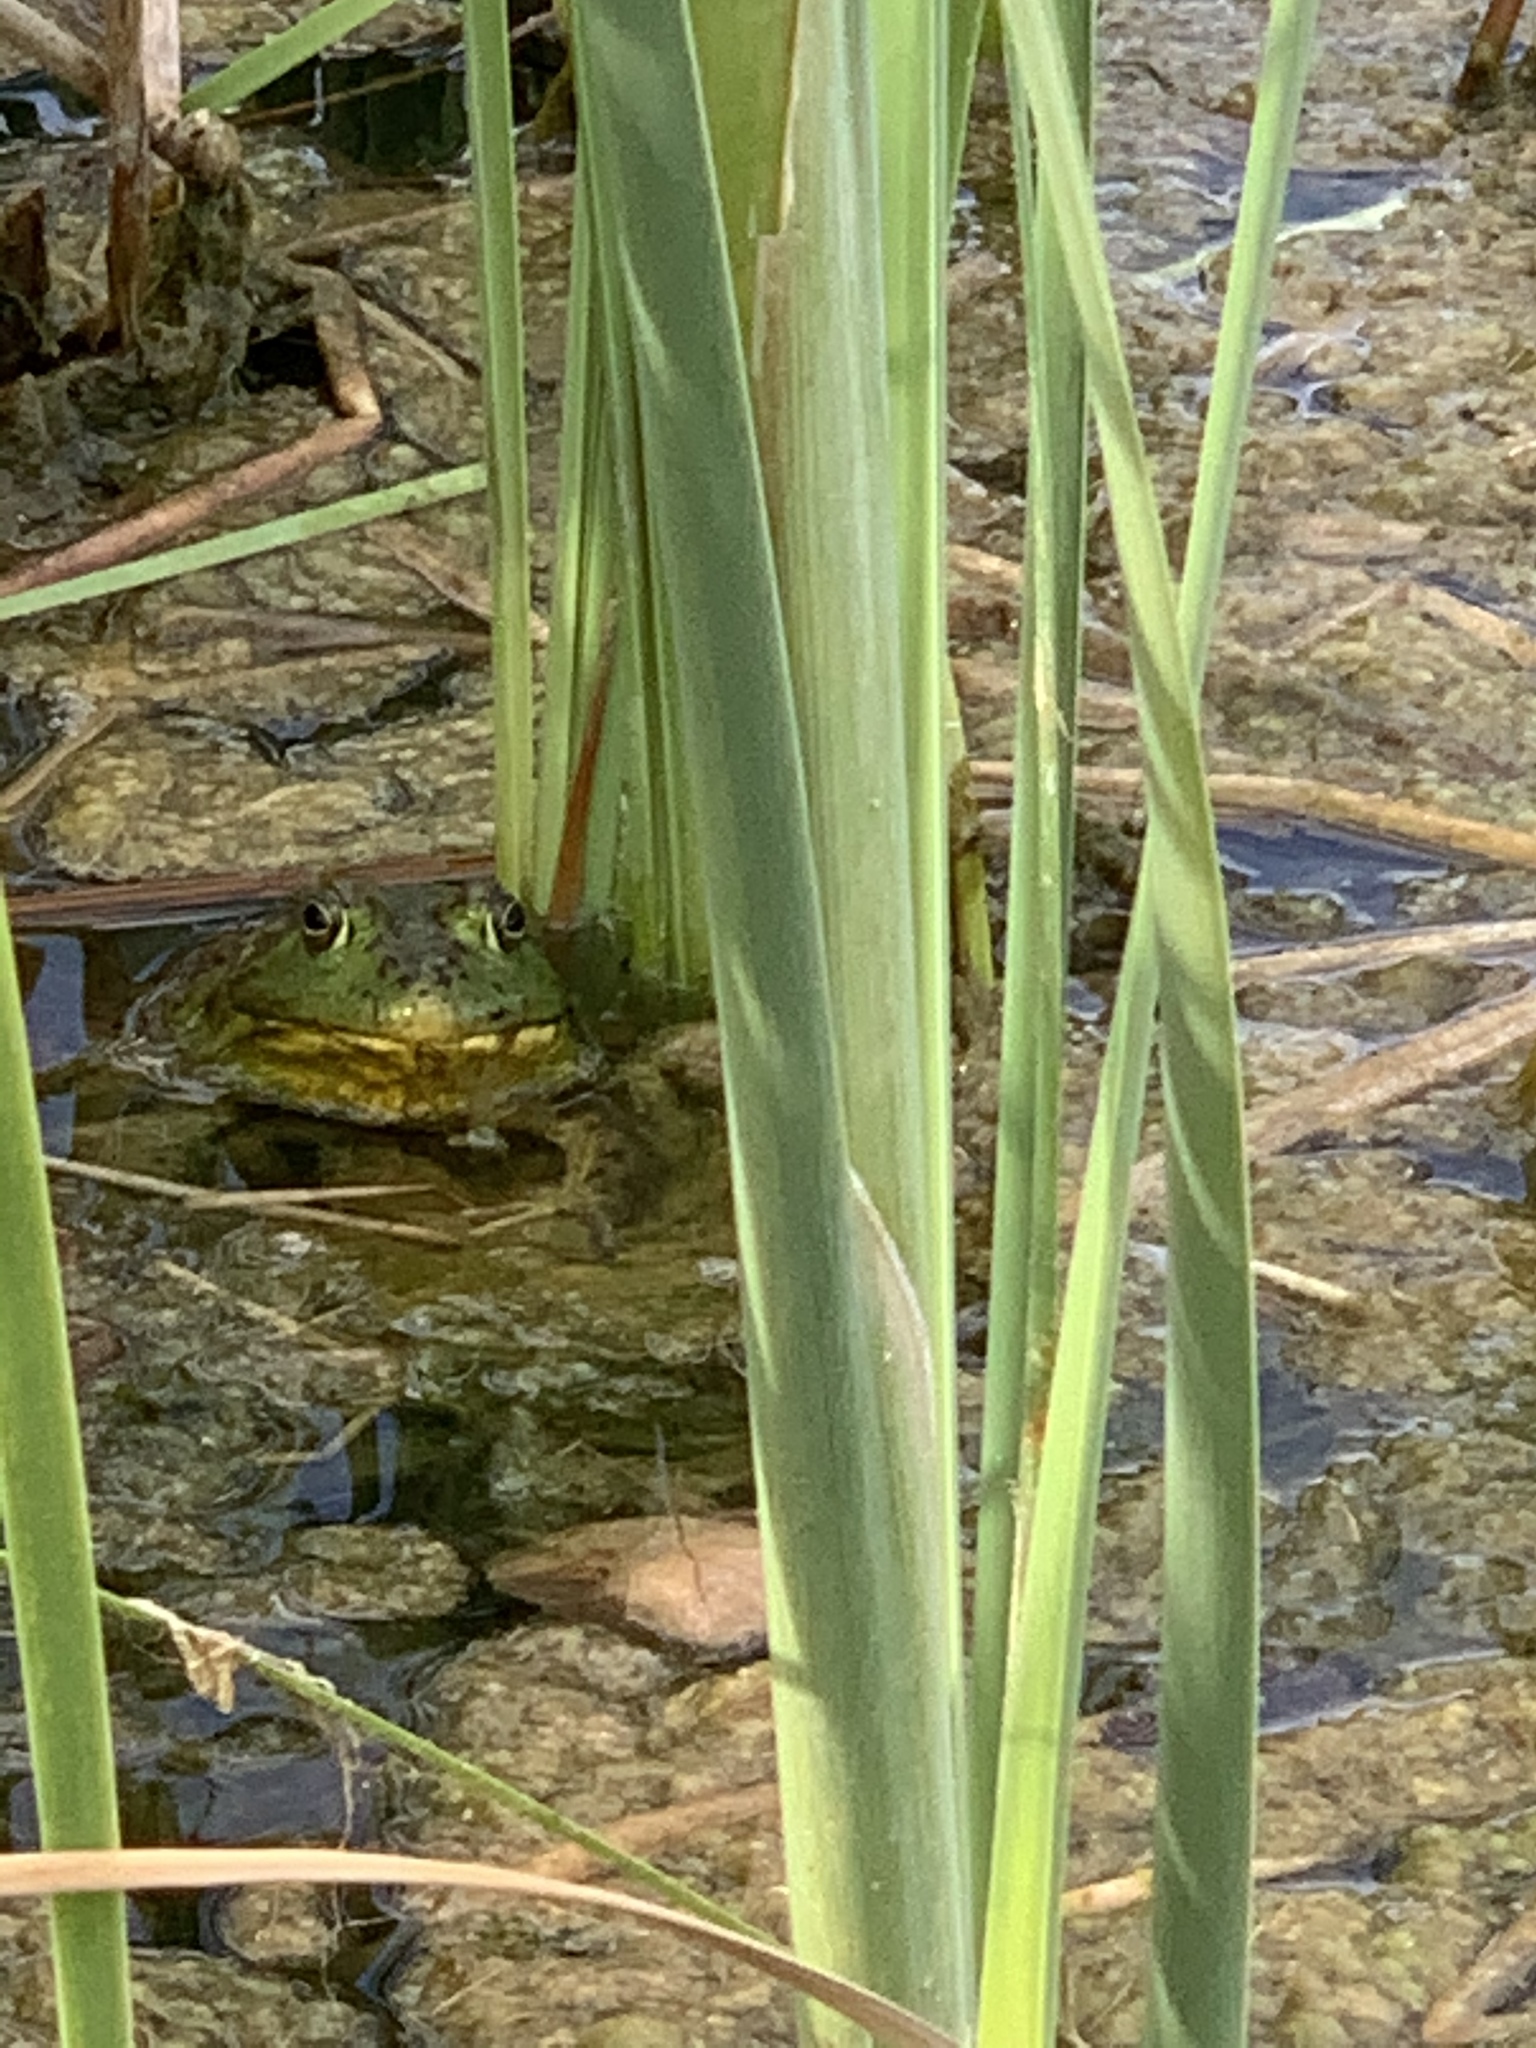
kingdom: Animalia
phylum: Chordata
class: Amphibia
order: Anura
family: Ranidae
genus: Lithobates
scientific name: Lithobates catesbeianus
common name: American bullfrog
